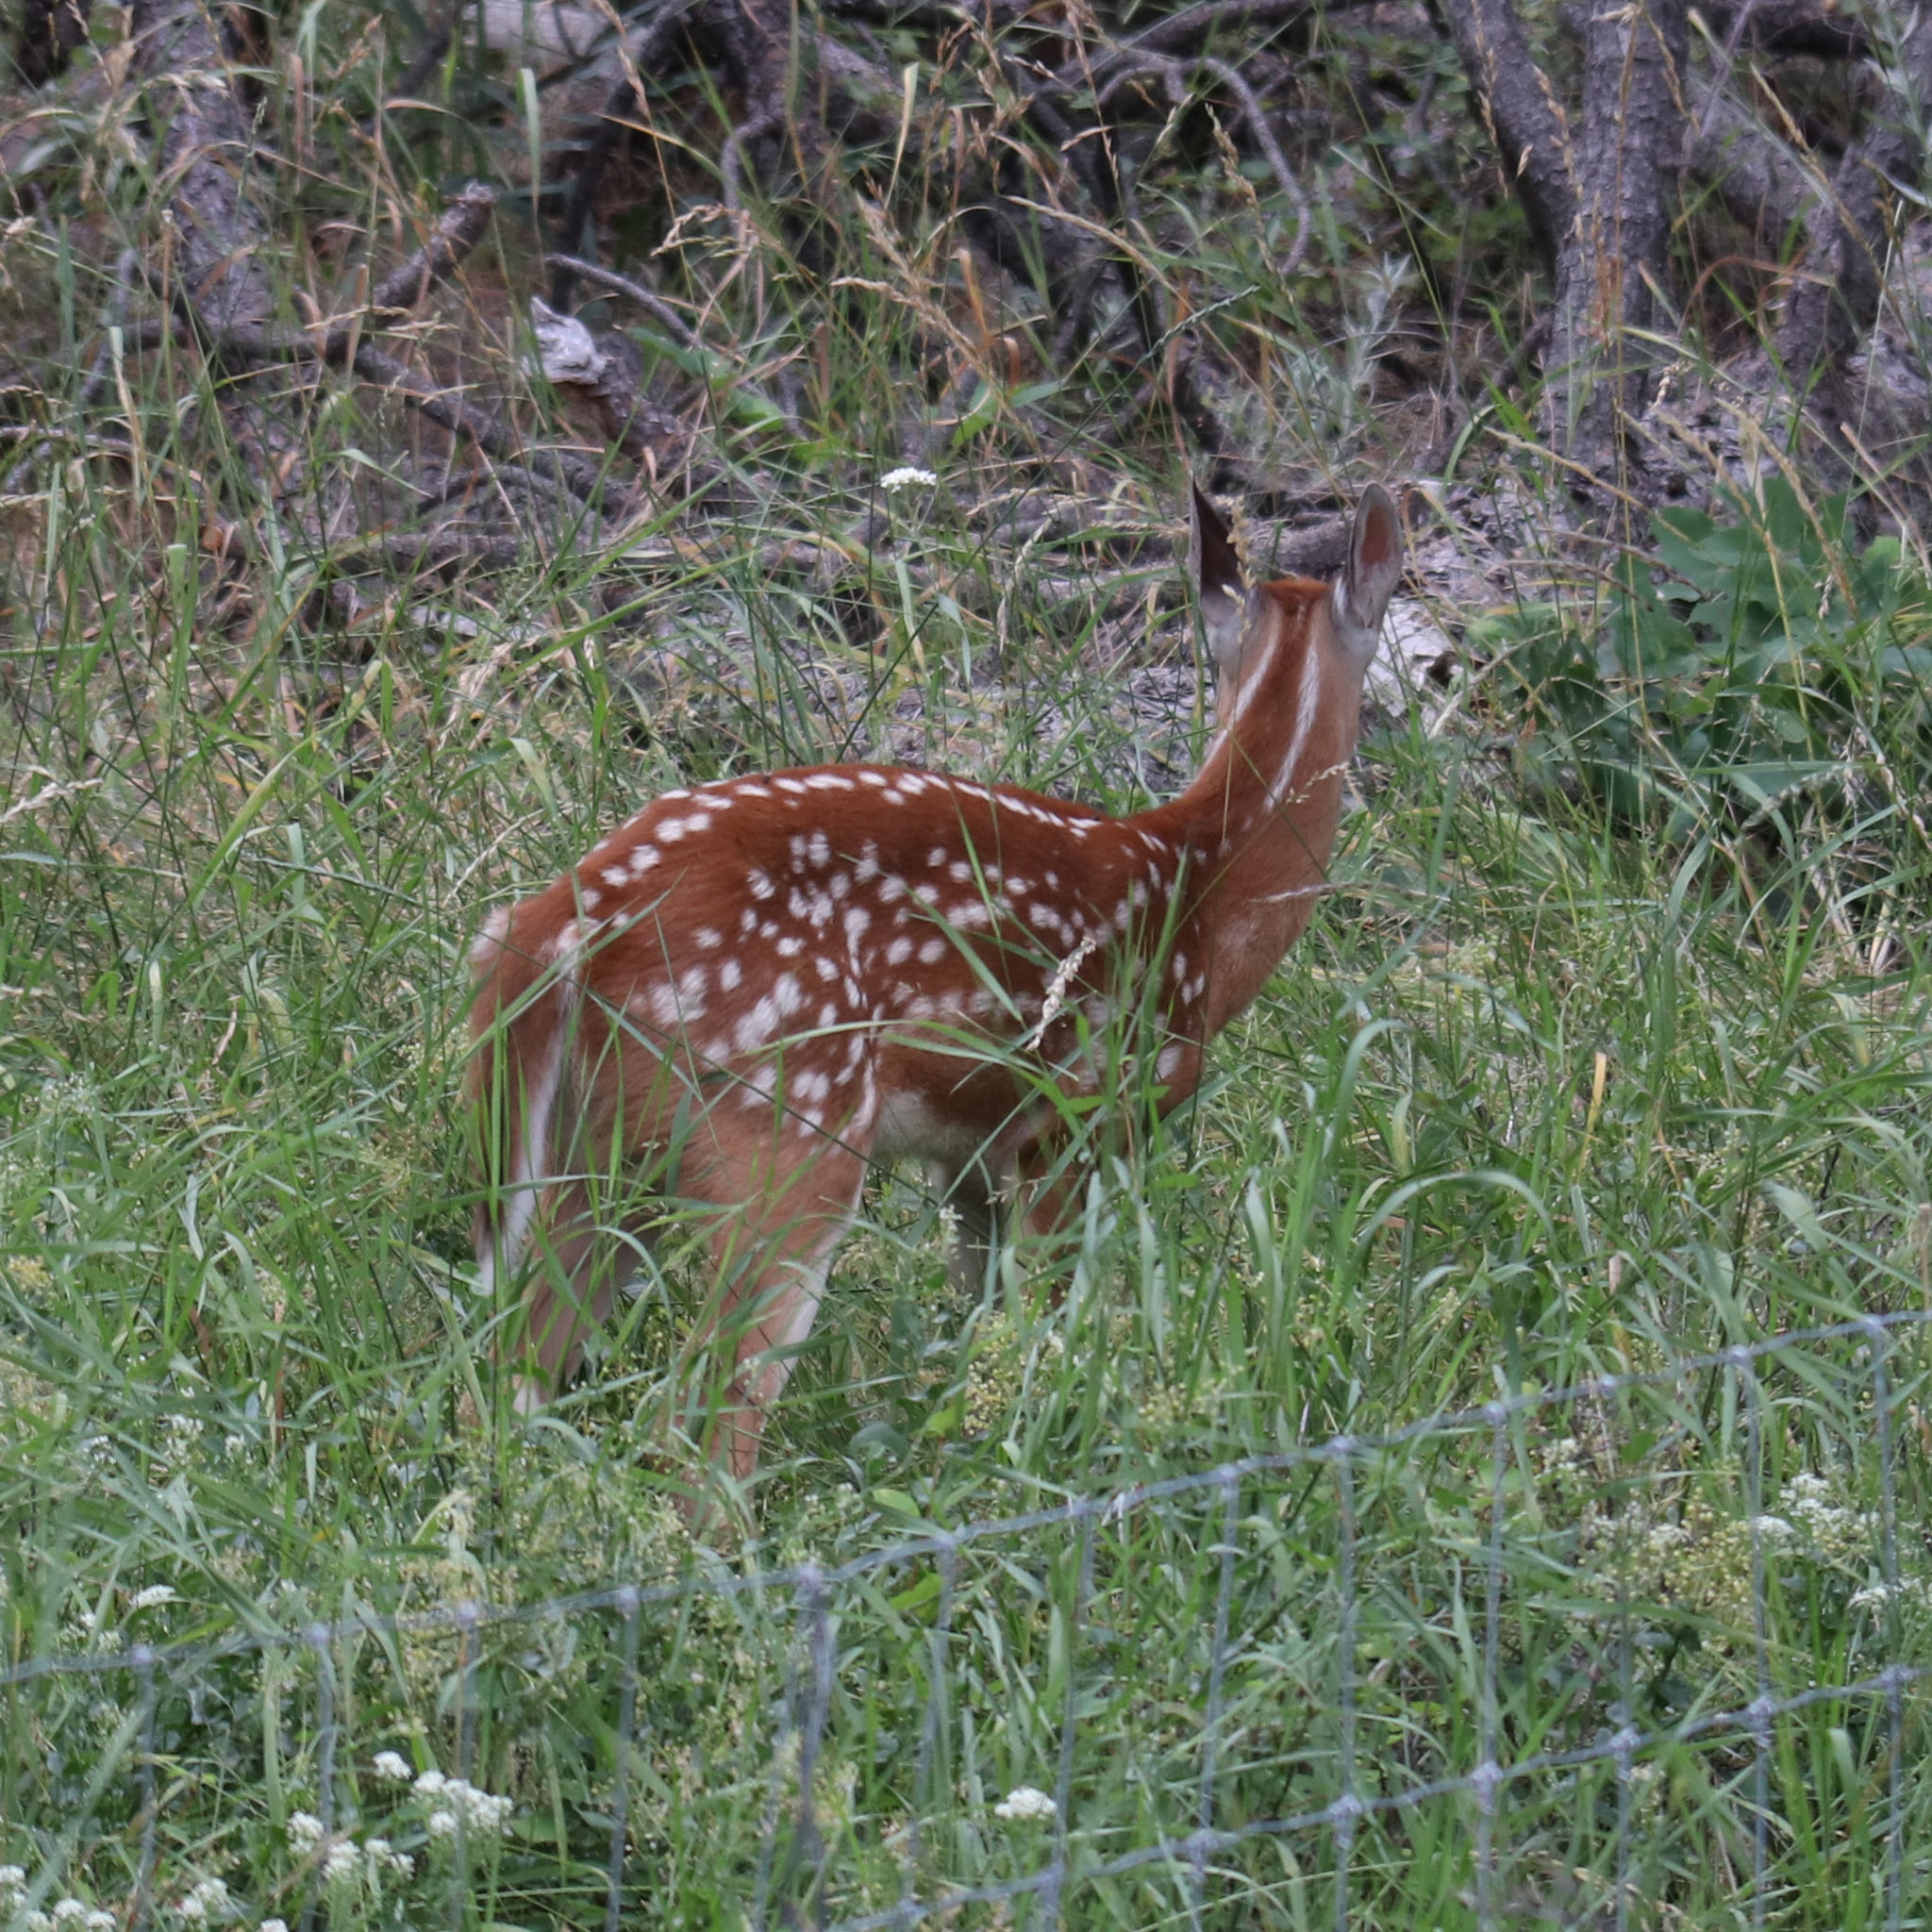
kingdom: Animalia
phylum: Chordata
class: Mammalia
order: Artiodactyla
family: Cervidae
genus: Odocoileus
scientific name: Odocoileus virginianus
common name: White-tailed deer
